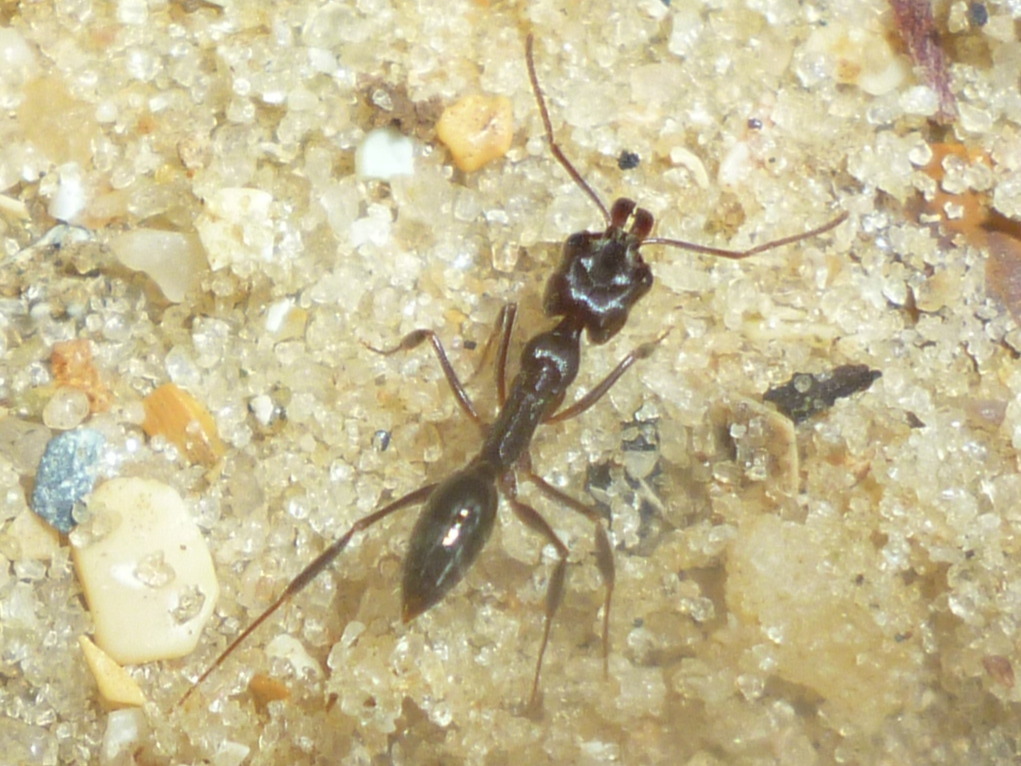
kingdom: Animalia
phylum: Arthropoda
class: Insecta
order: Hymenoptera
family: Formicidae
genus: Odontomachus
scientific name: Odontomachus brunneus
